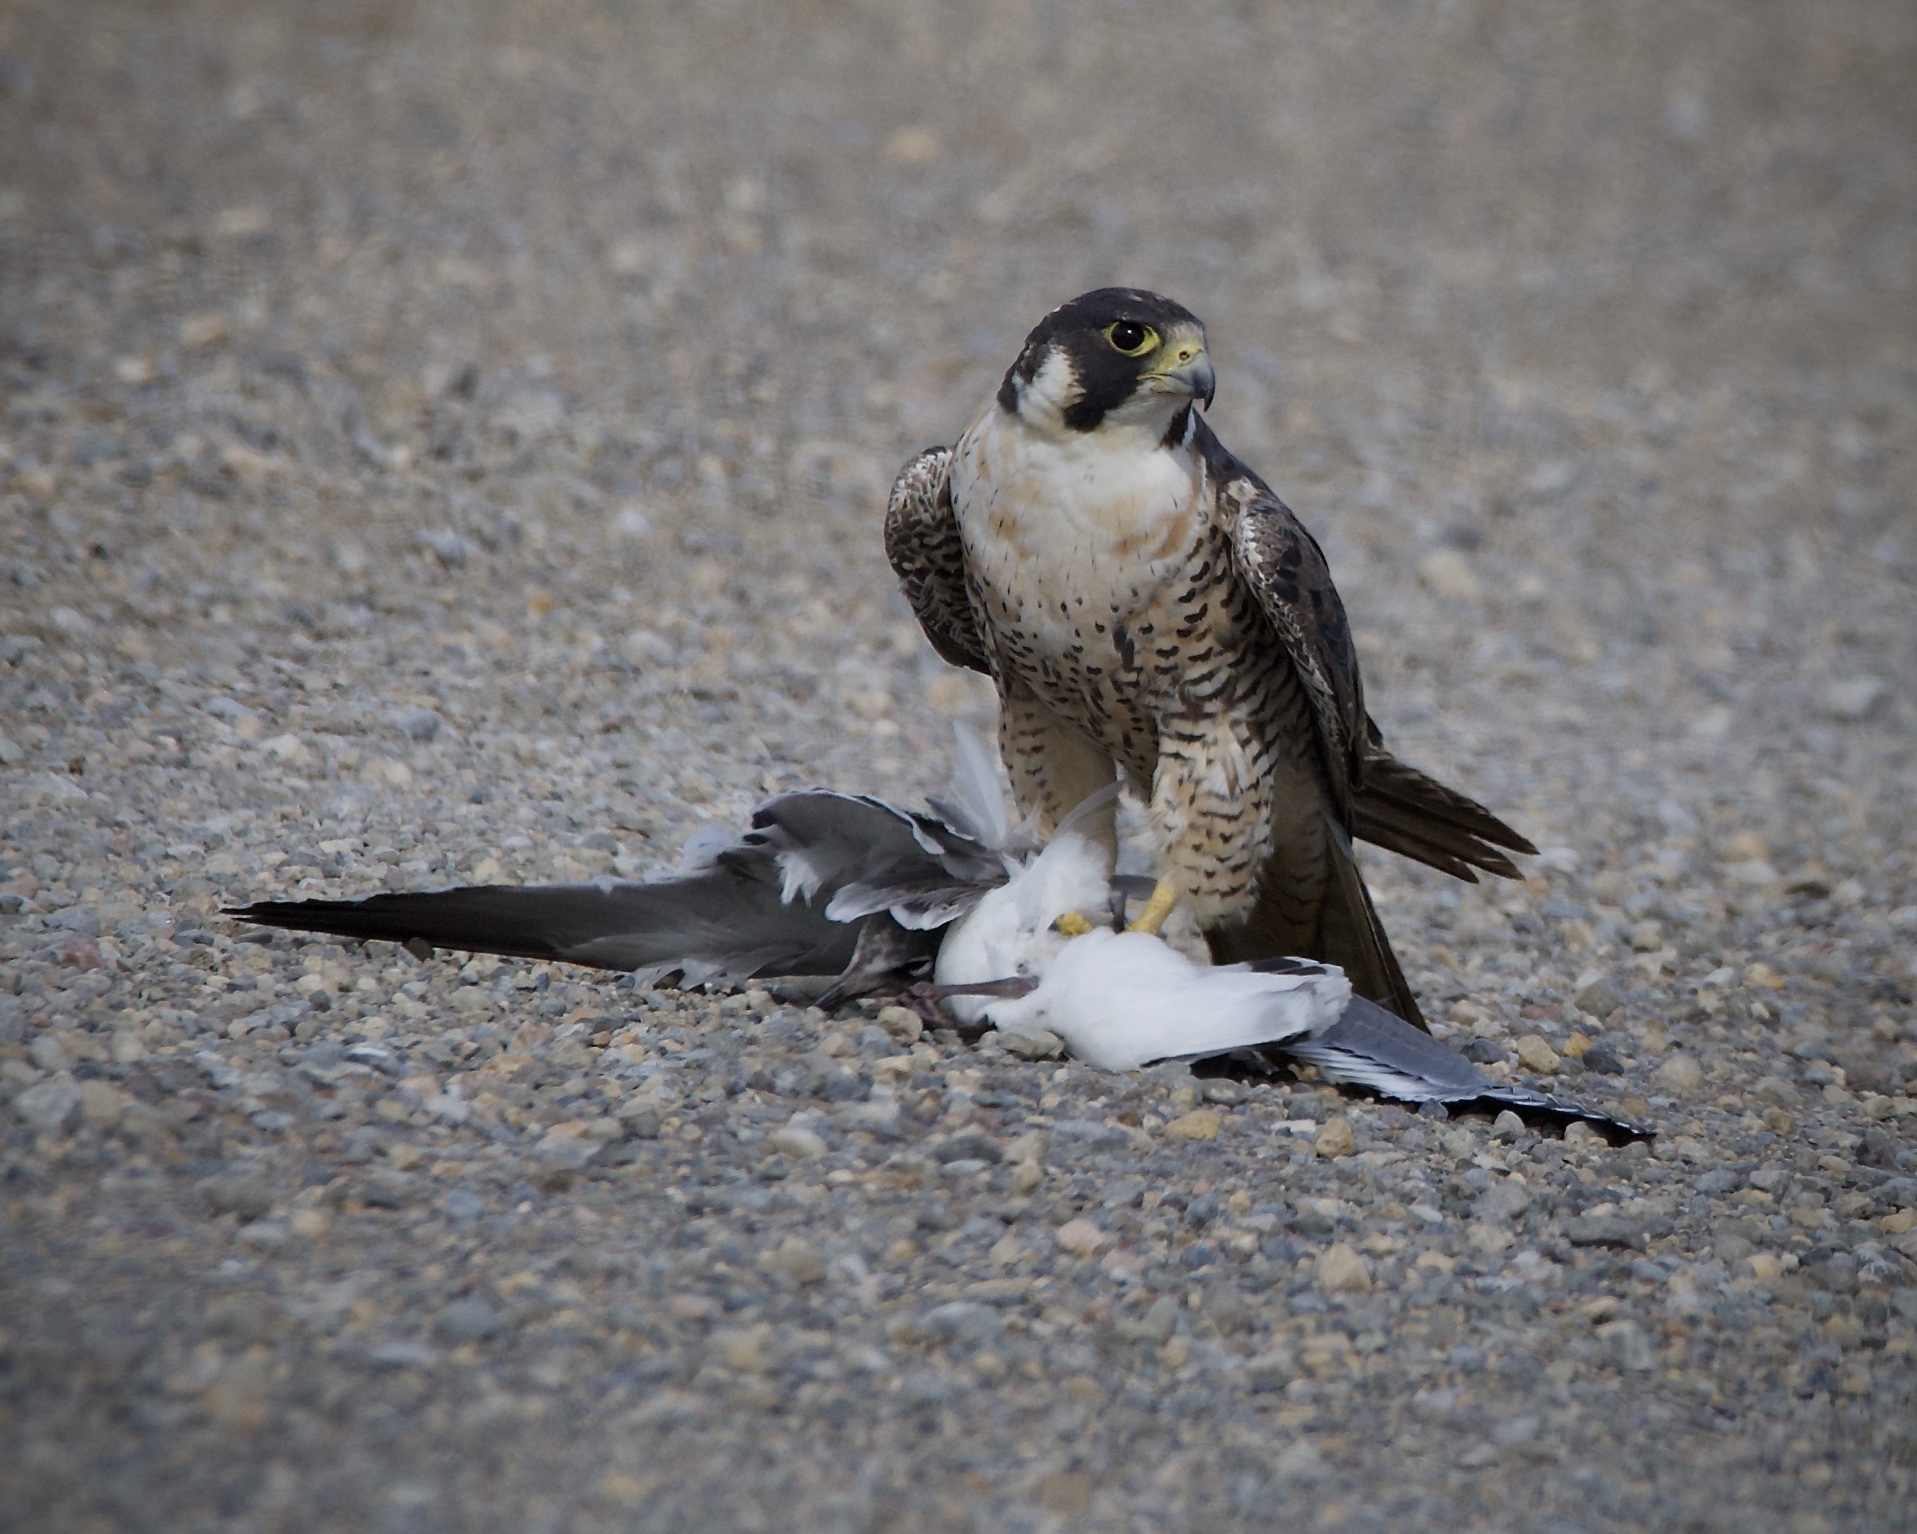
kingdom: Animalia
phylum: Chordata
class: Aves
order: Falconiformes
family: Falconidae
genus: Falco
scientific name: Falco peregrinus
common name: Peregrine falcon
